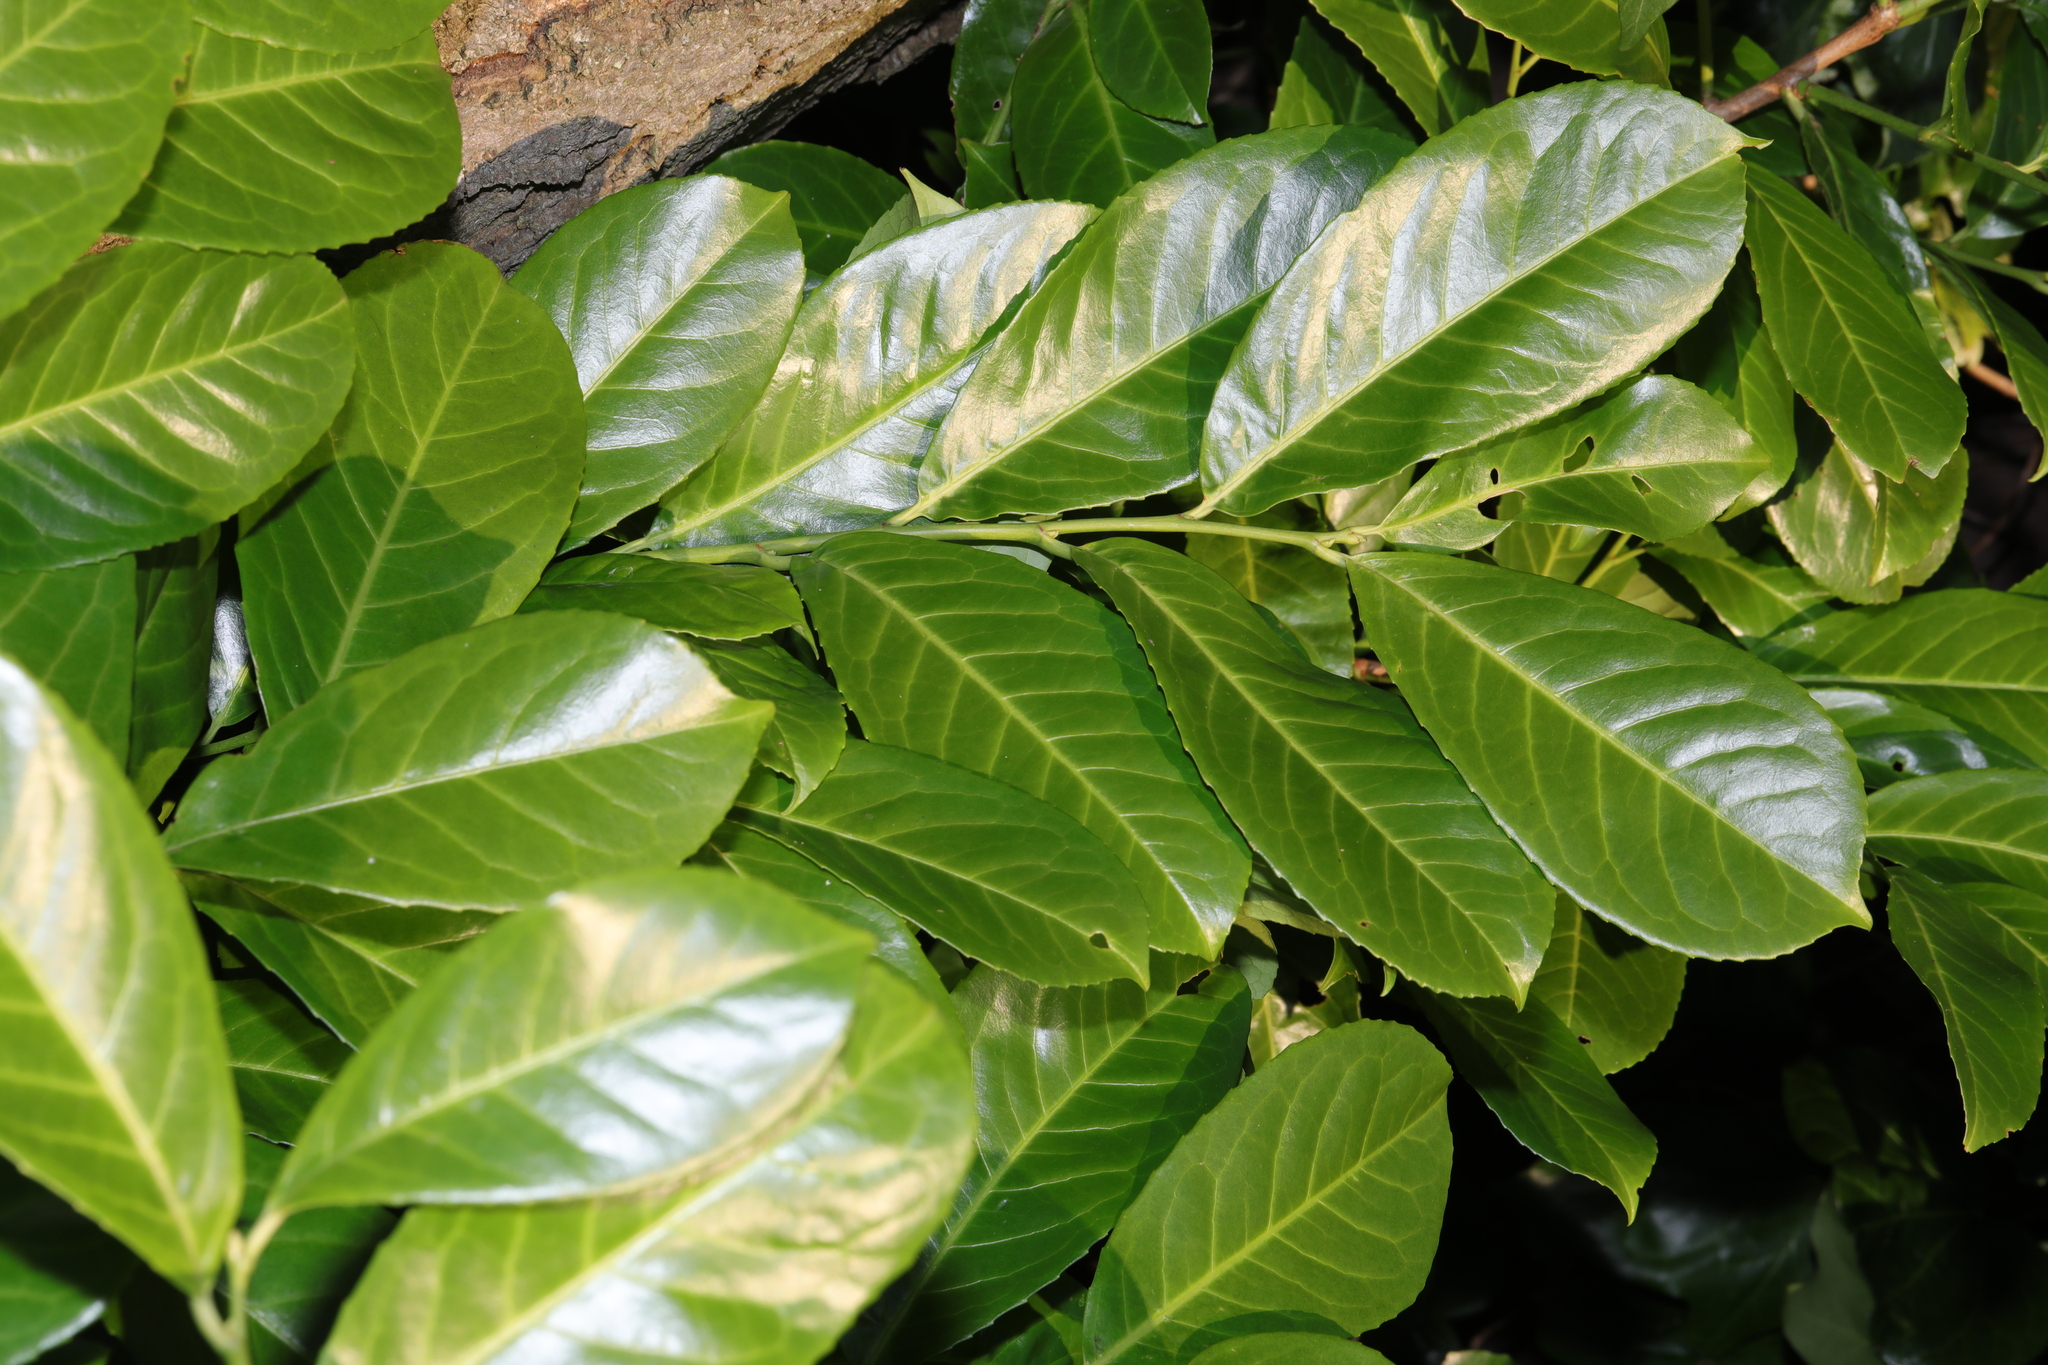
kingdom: Plantae
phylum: Tracheophyta
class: Magnoliopsida
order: Rosales
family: Rosaceae
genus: Prunus
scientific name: Prunus laurocerasus
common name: Cherry laurel
